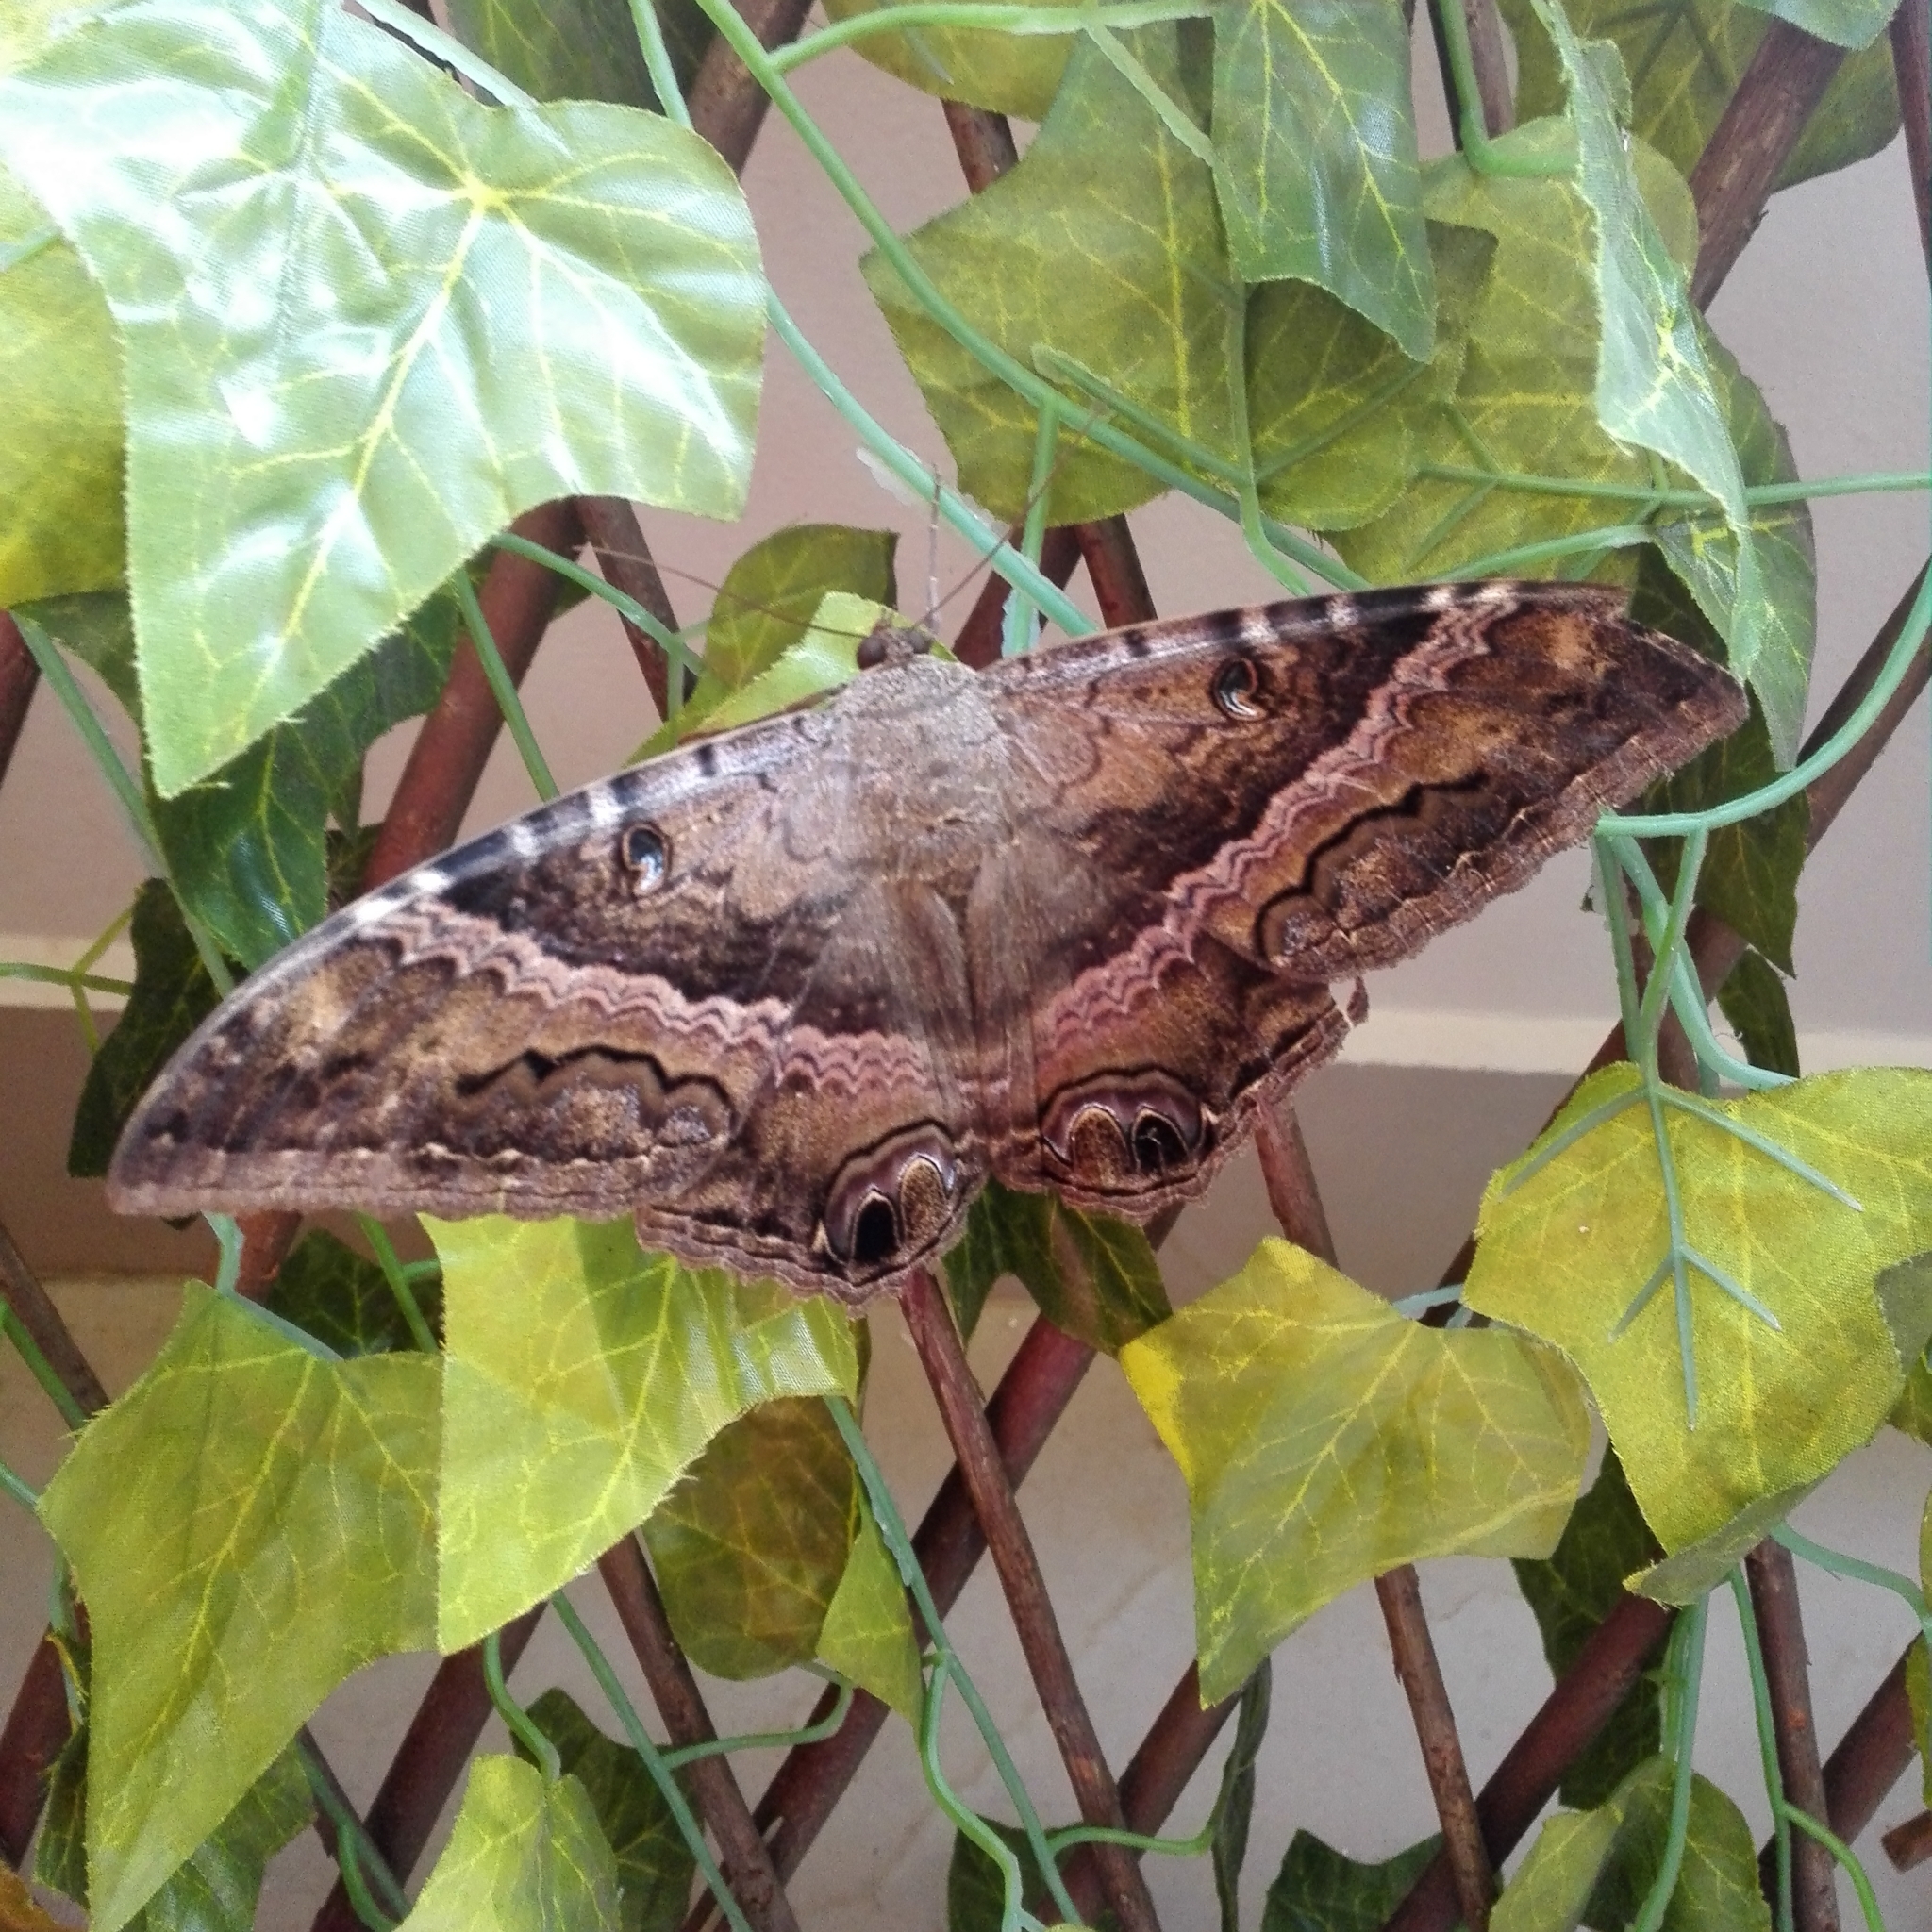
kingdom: Animalia
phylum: Arthropoda
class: Insecta
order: Lepidoptera
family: Erebidae
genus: Ascalapha
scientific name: Ascalapha odorata
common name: Black witch
